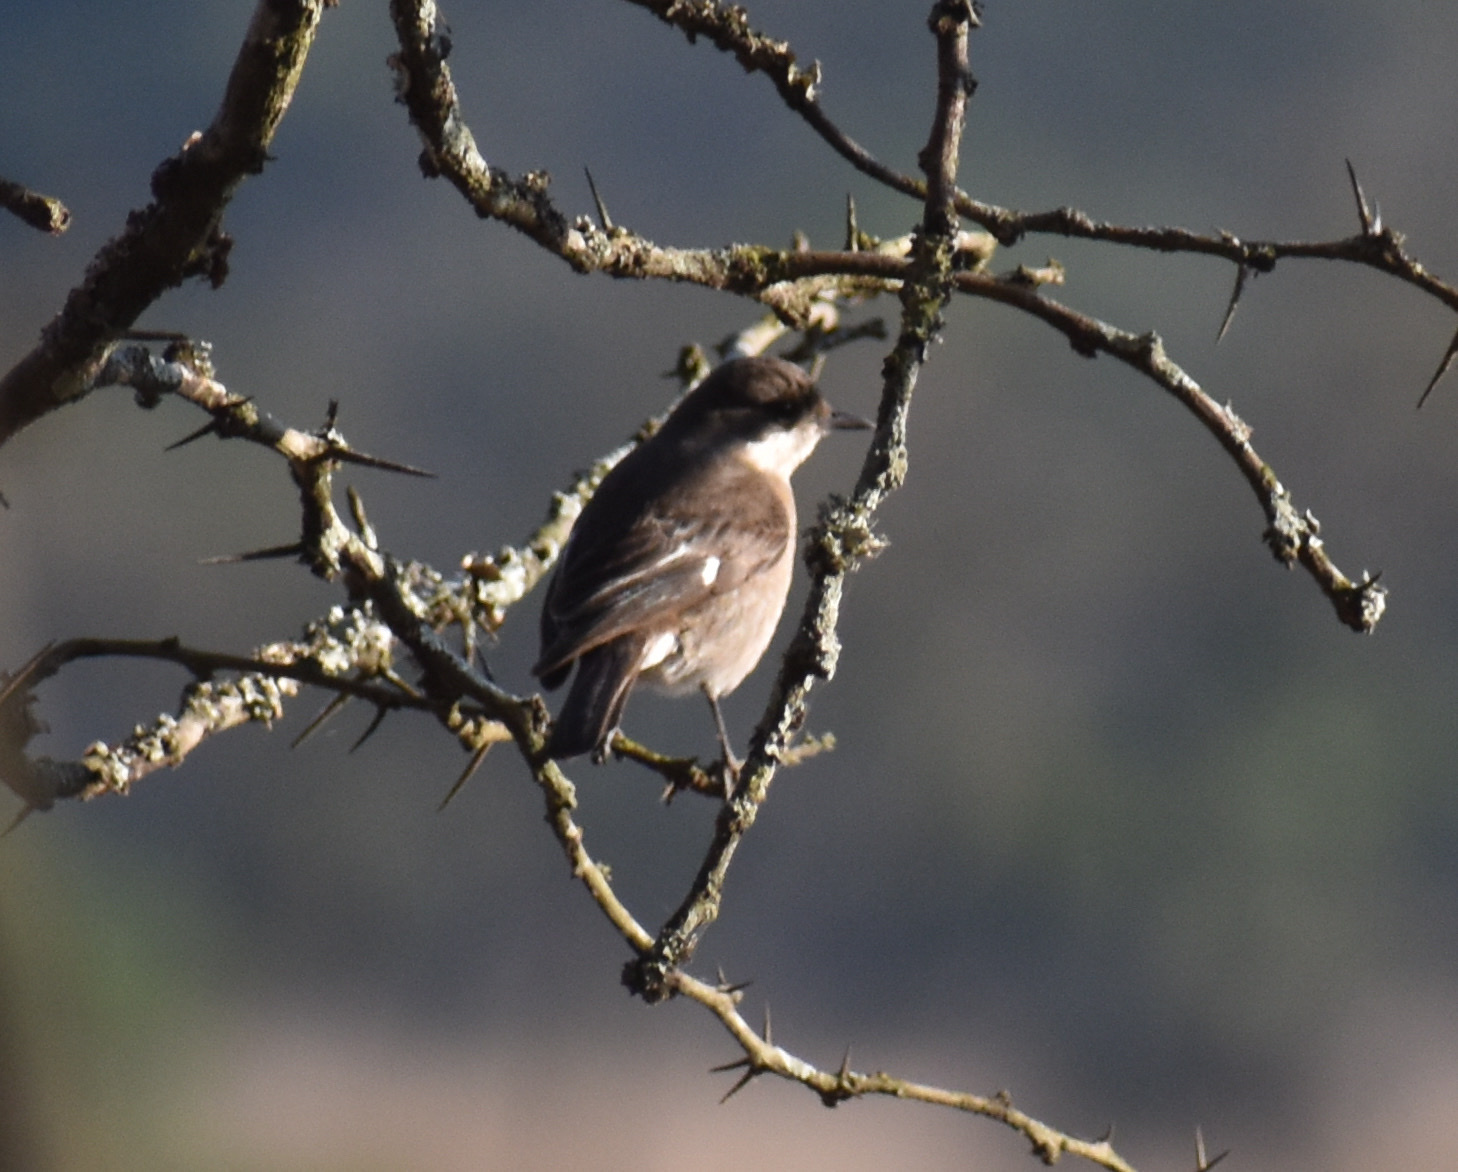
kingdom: Animalia
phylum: Chordata
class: Aves
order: Passeriformes
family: Muscicapidae
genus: Sigelus
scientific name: Sigelus silens
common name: Fiscal flycatcher
